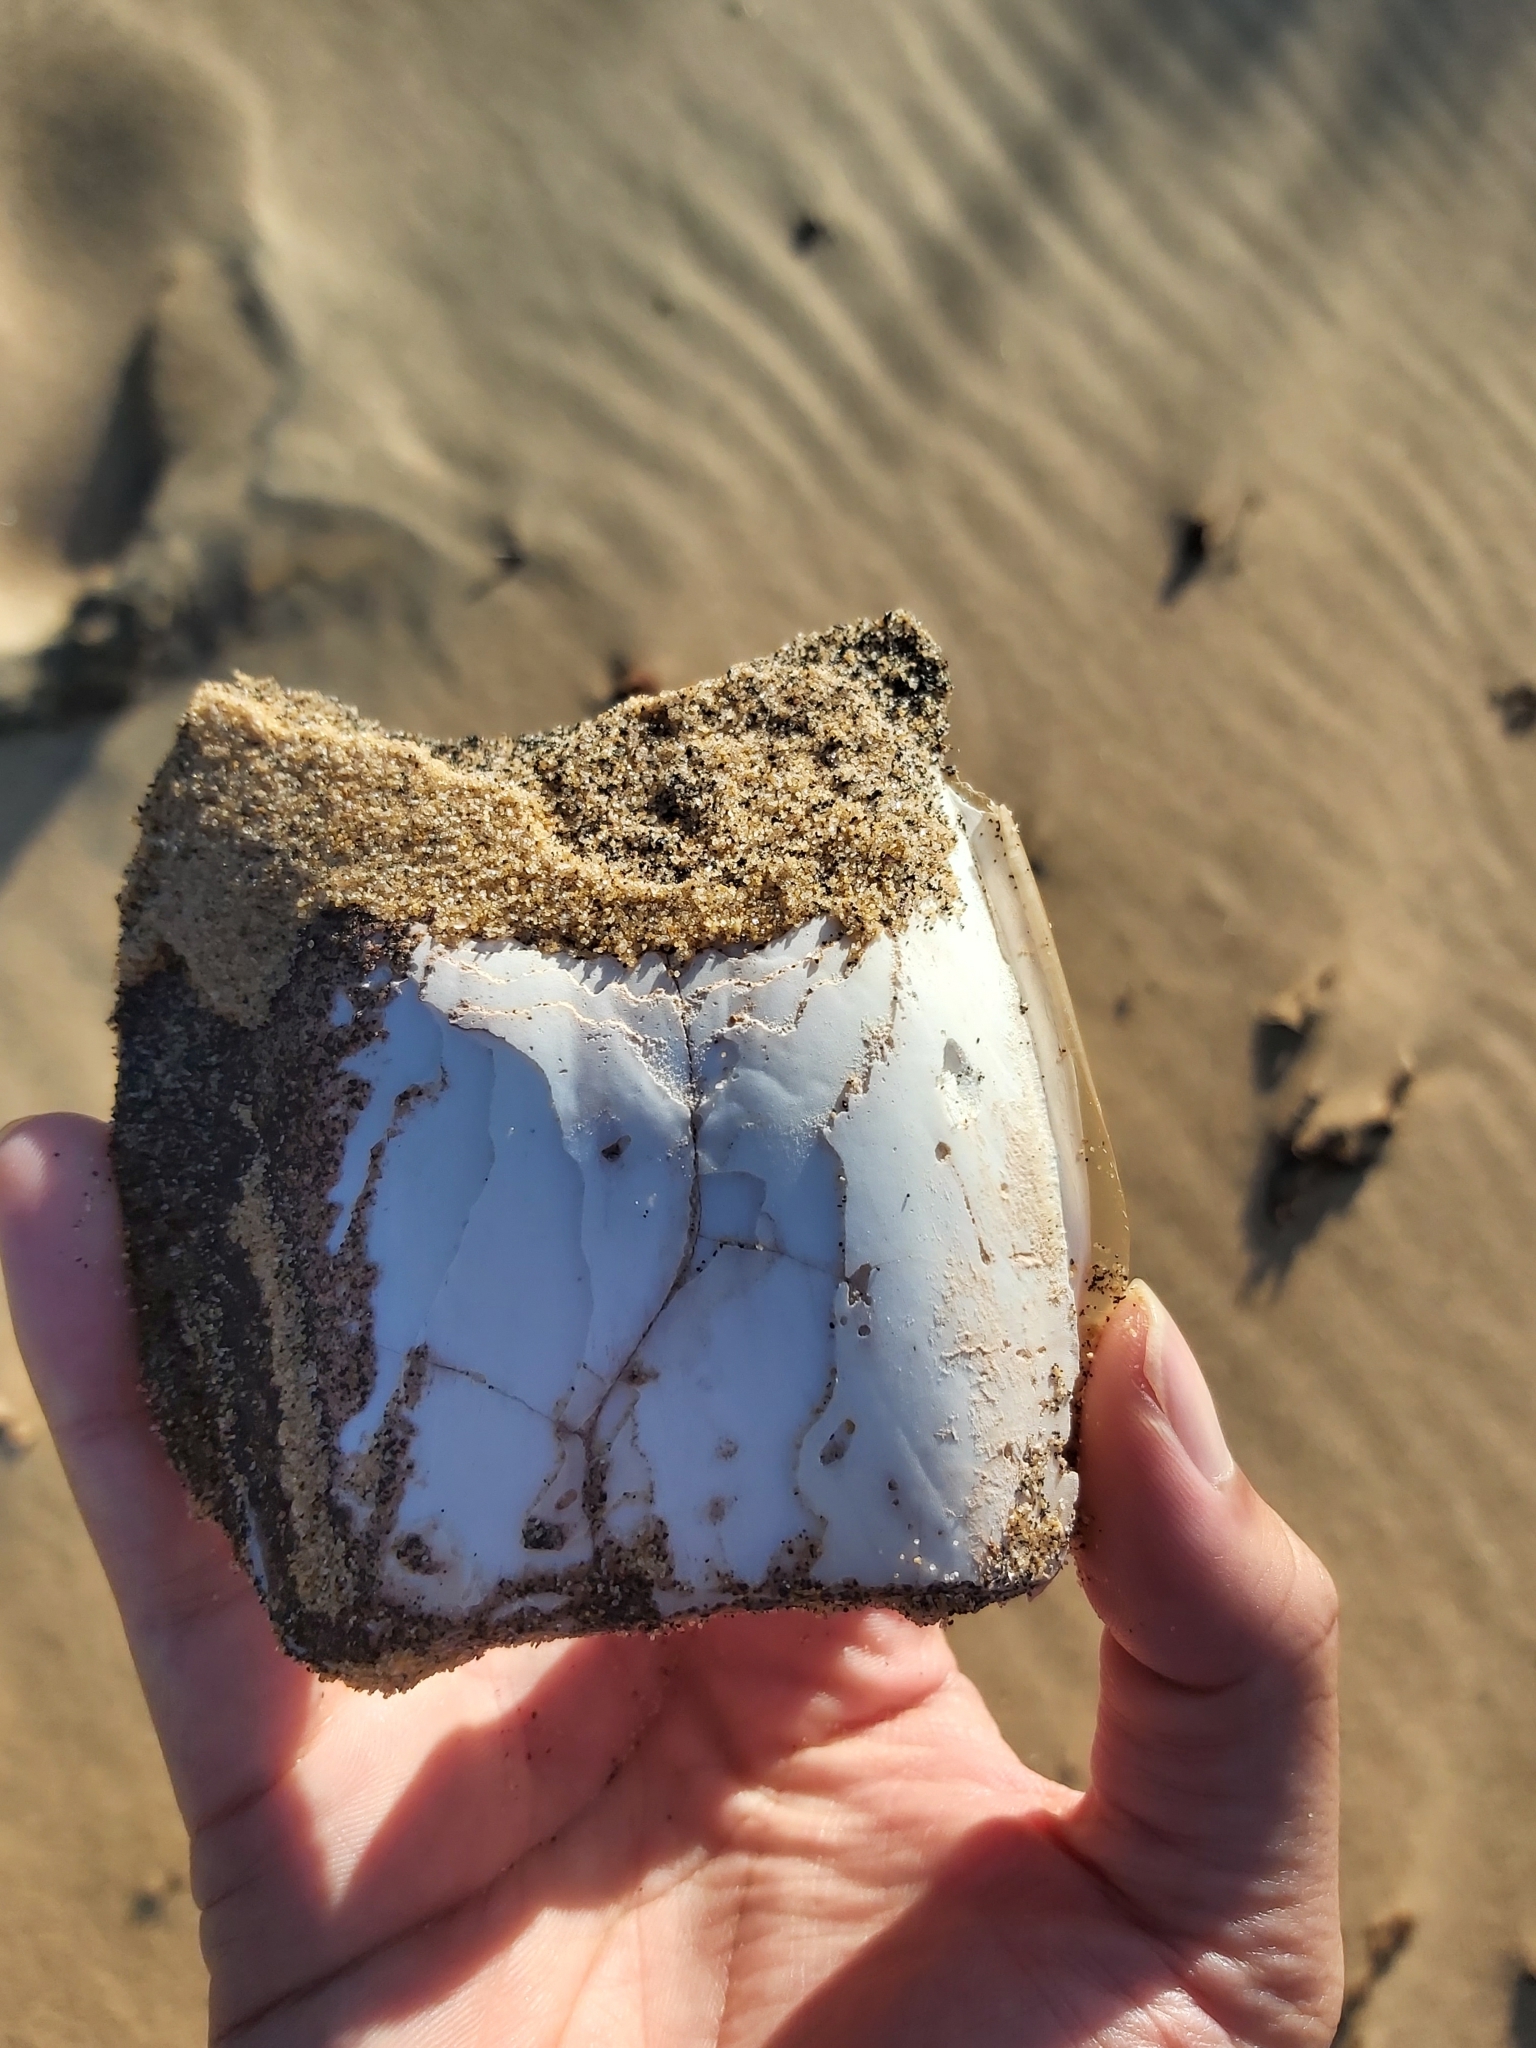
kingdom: Animalia
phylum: Mollusca
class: Cephalopoda
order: Sepiida
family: Sepiidae
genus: Ascarosepion
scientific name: Ascarosepion apama
